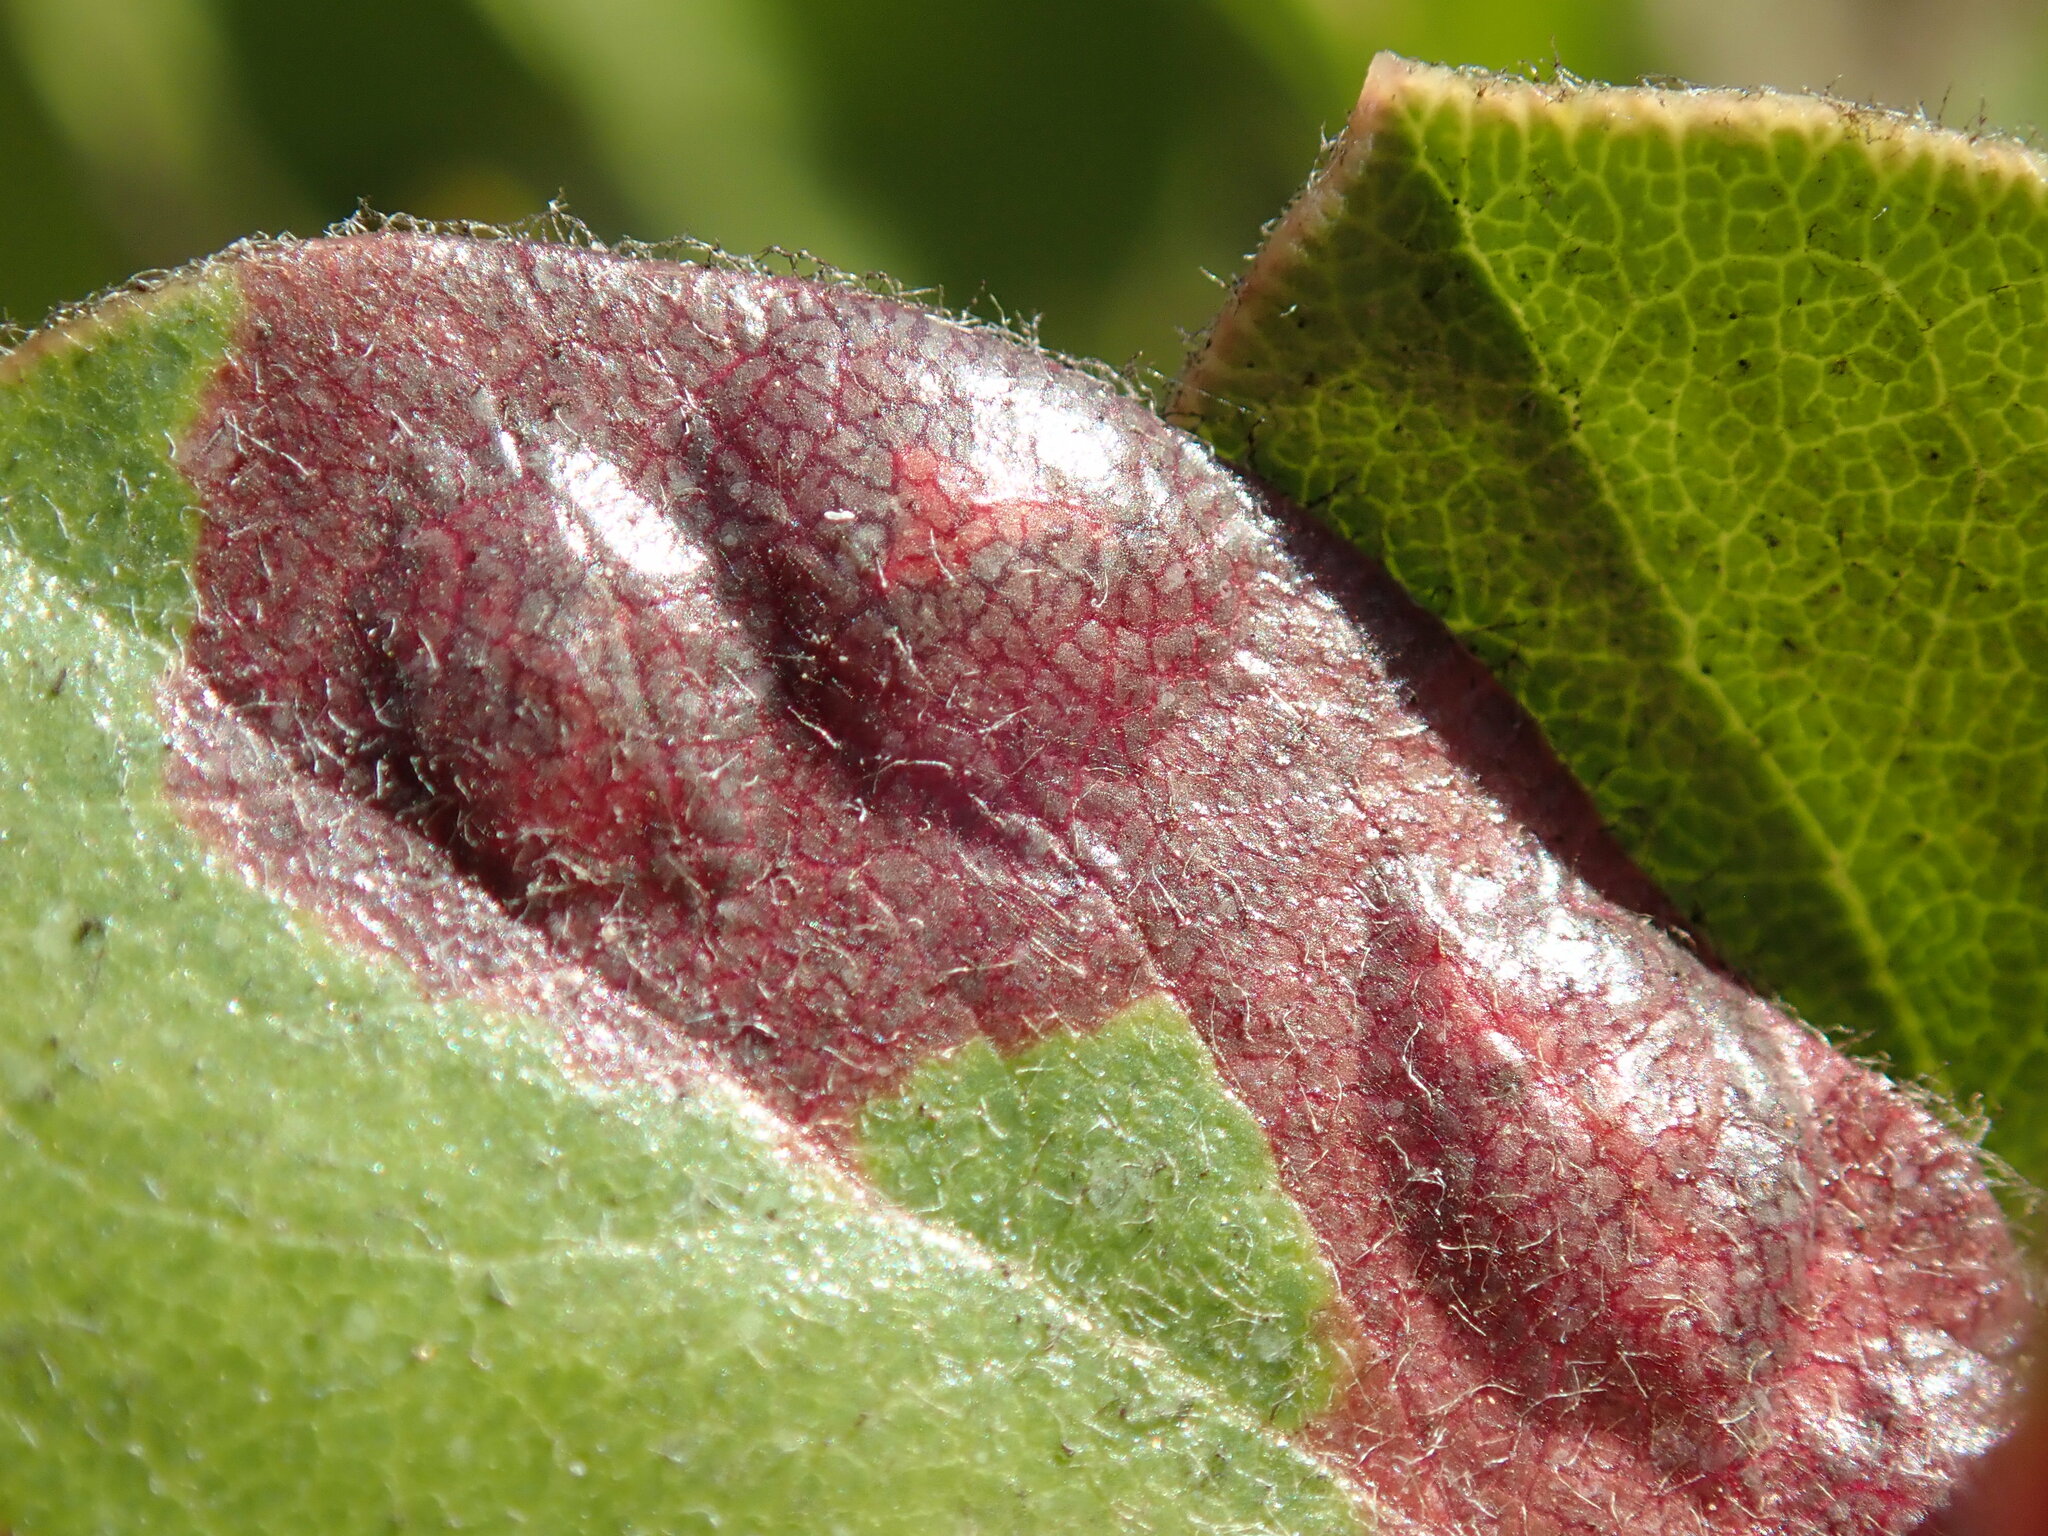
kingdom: Fungi
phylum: Basidiomycota
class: Exobasidiomycetes
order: Exobasidiales
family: Exobasidiaceae
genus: Exobasidium
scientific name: Exobasidium arctostaphyli
